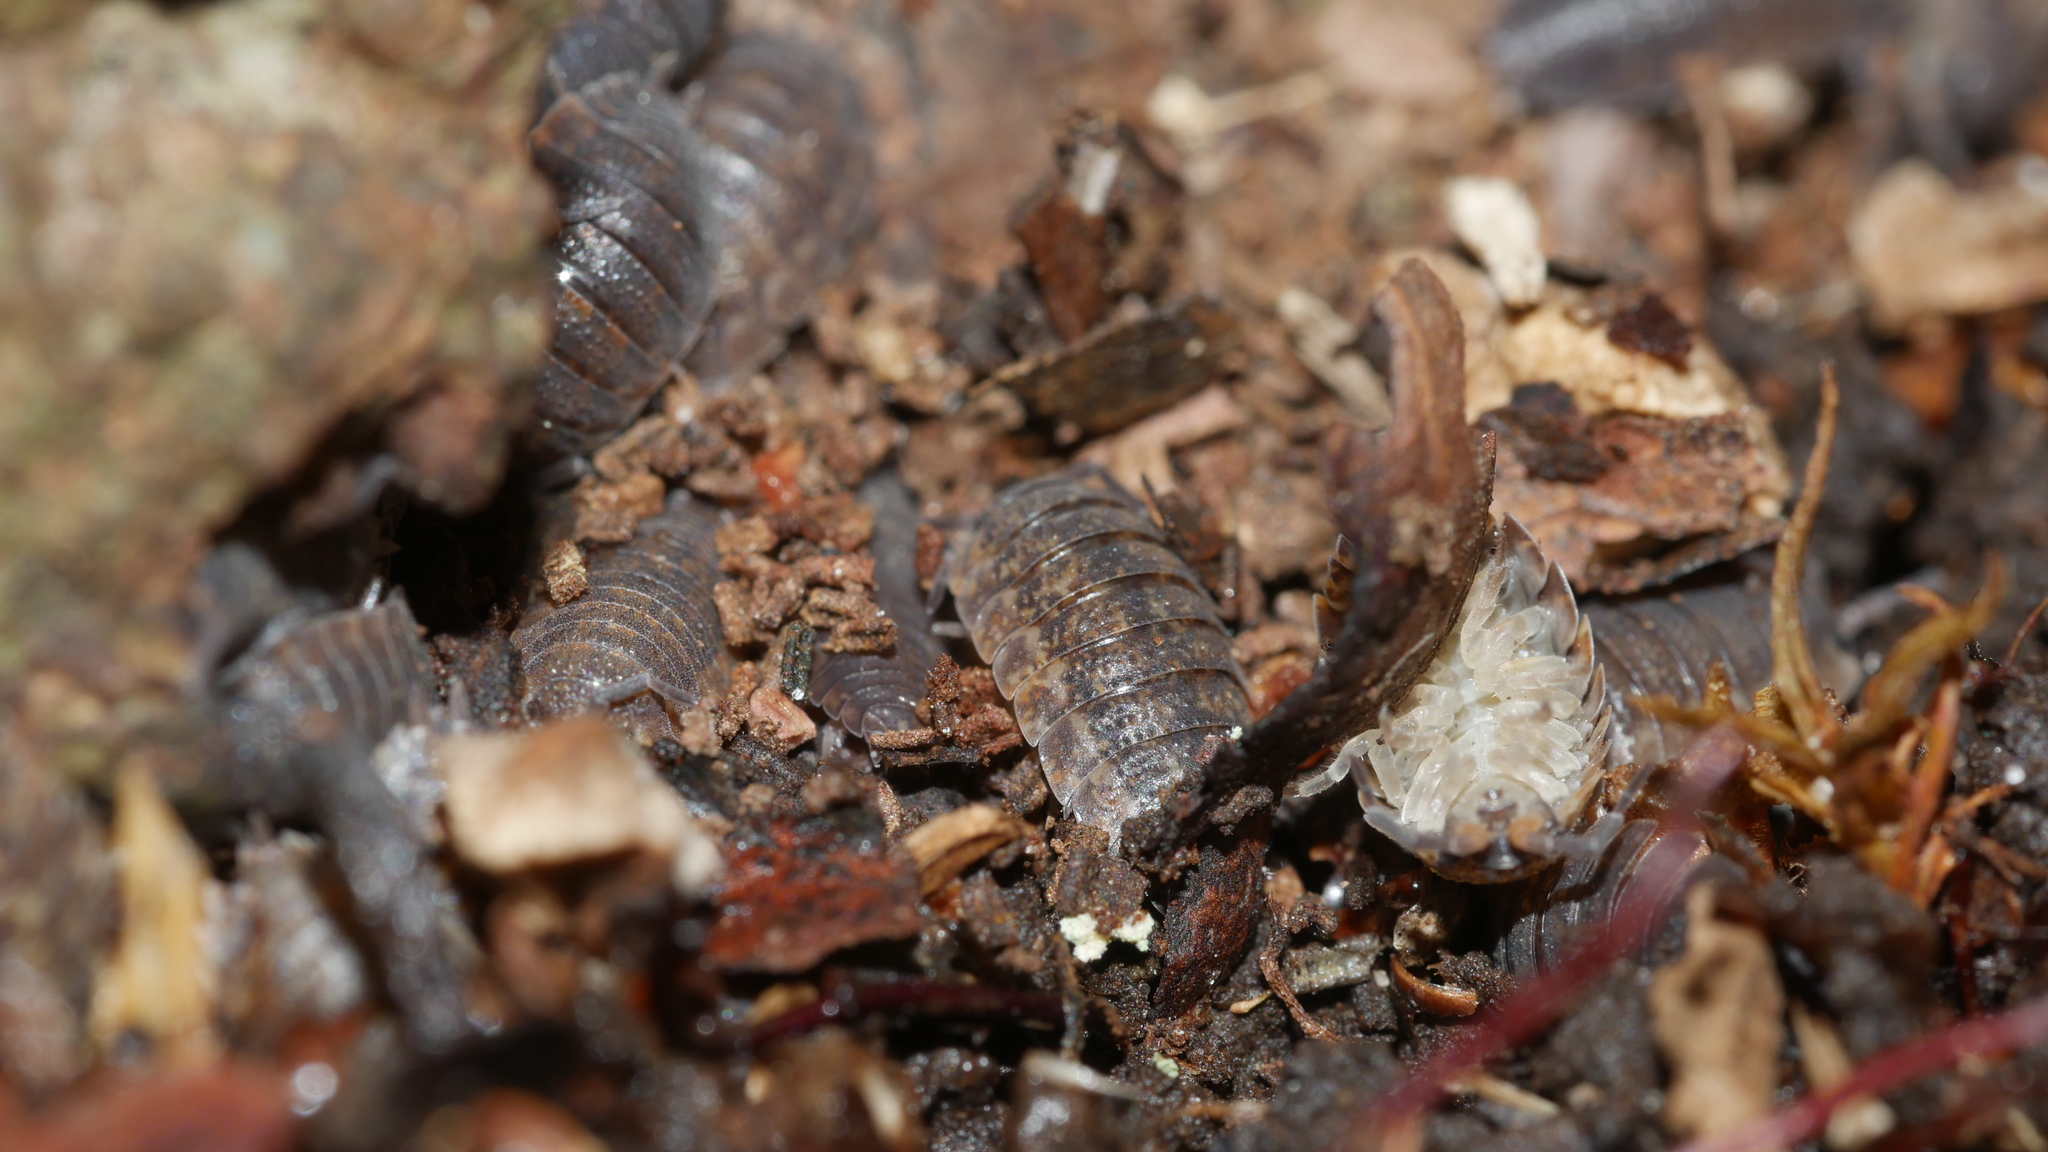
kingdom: Animalia
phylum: Arthropoda
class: Malacostraca
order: Isopoda
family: Porcellionidae
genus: Porcellio
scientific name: Porcellio scaber
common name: Common rough woodlouse
